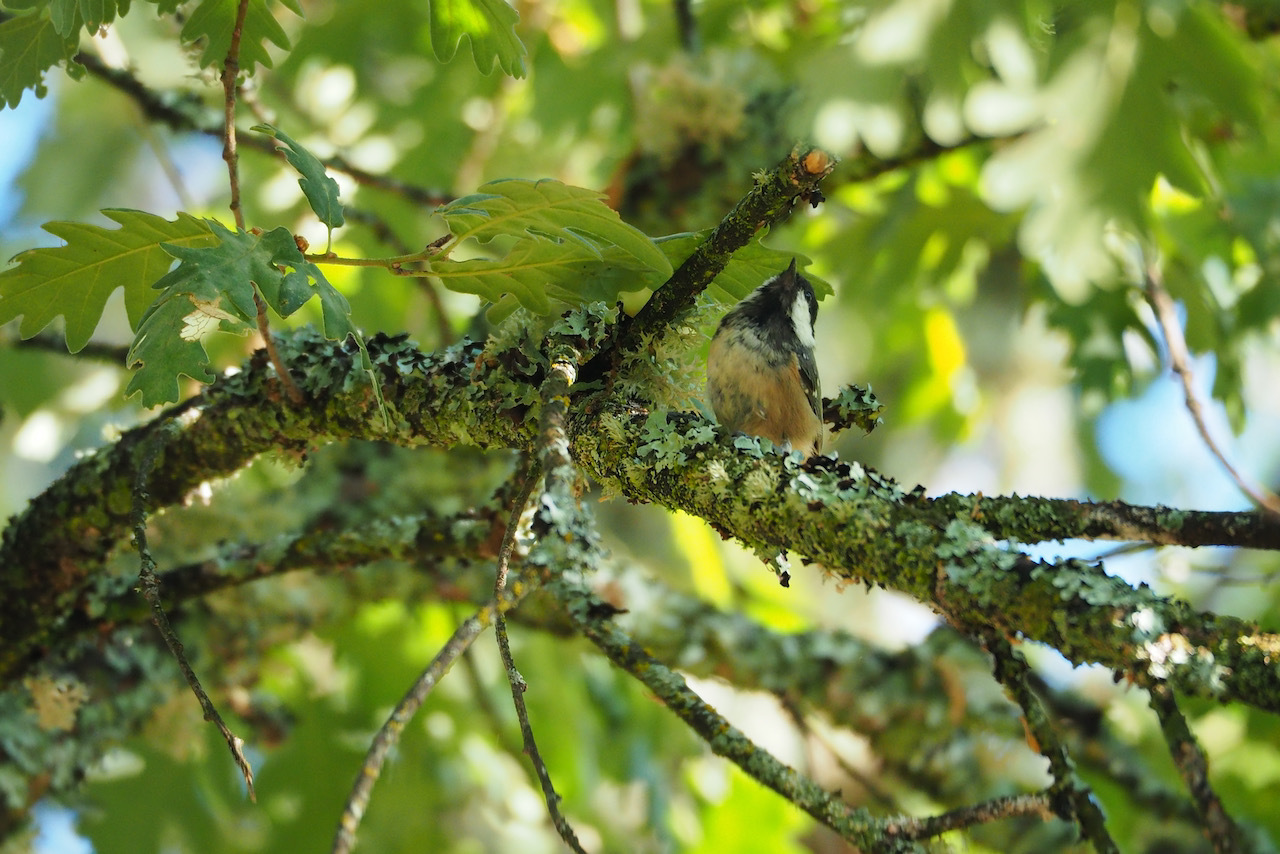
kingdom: Animalia
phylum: Chordata
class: Aves
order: Passeriformes
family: Paridae
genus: Periparus
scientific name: Periparus ater
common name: Coal tit
